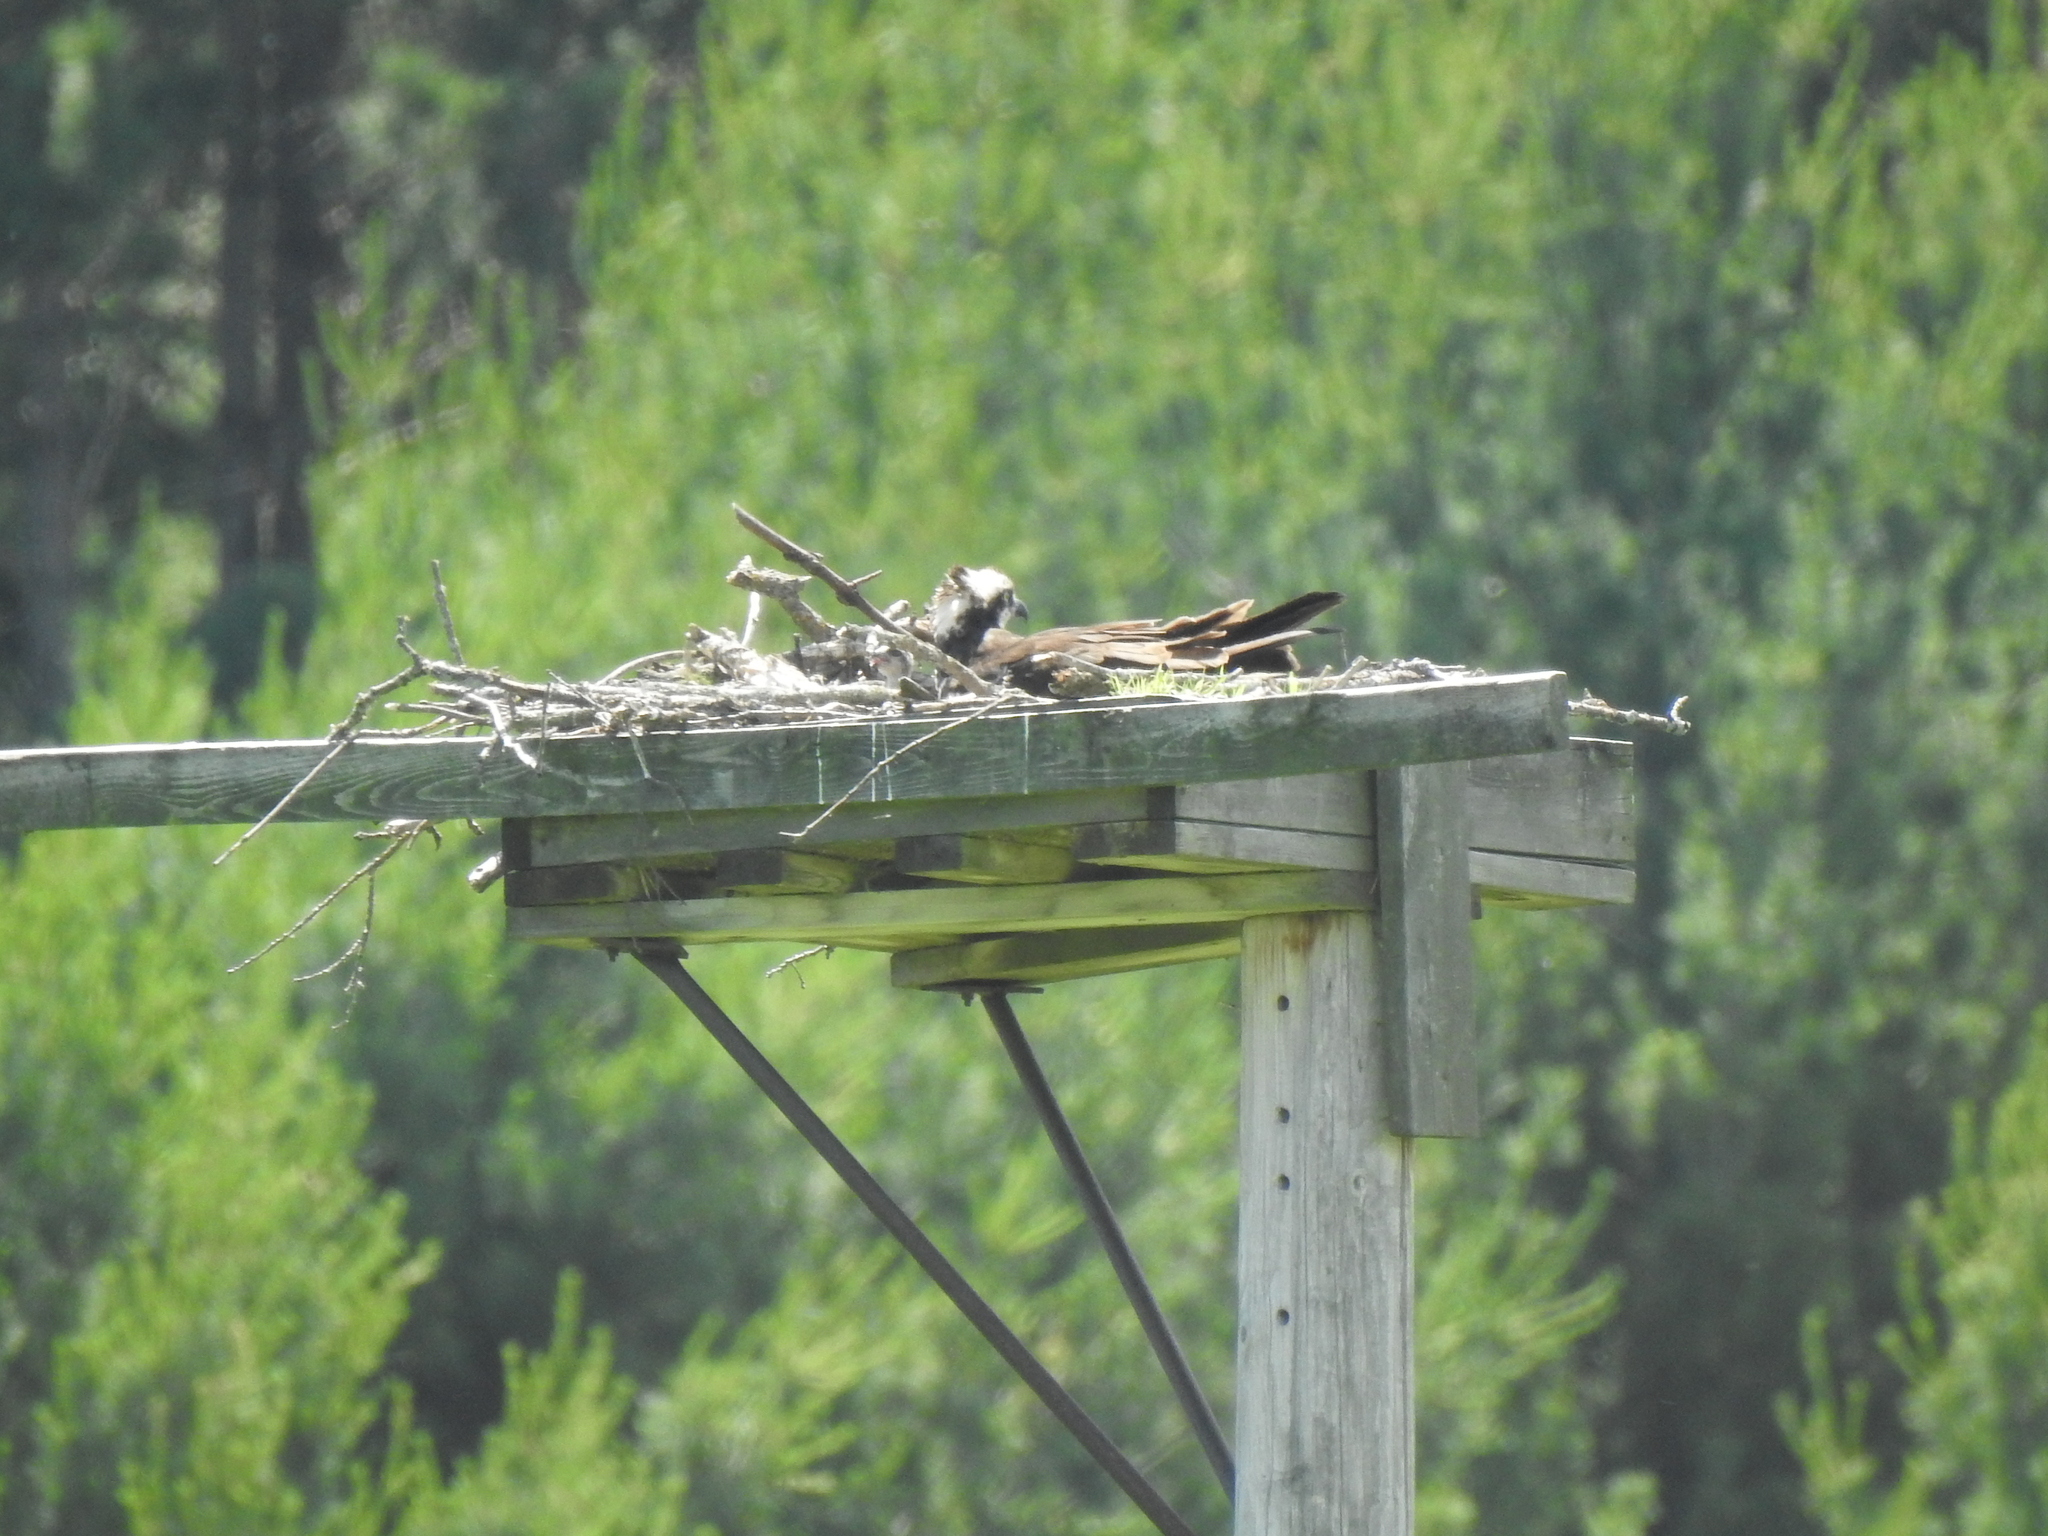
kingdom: Animalia
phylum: Chordata
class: Aves
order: Accipitriformes
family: Pandionidae
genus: Pandion
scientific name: Pandion haliaetus
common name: Osprey
